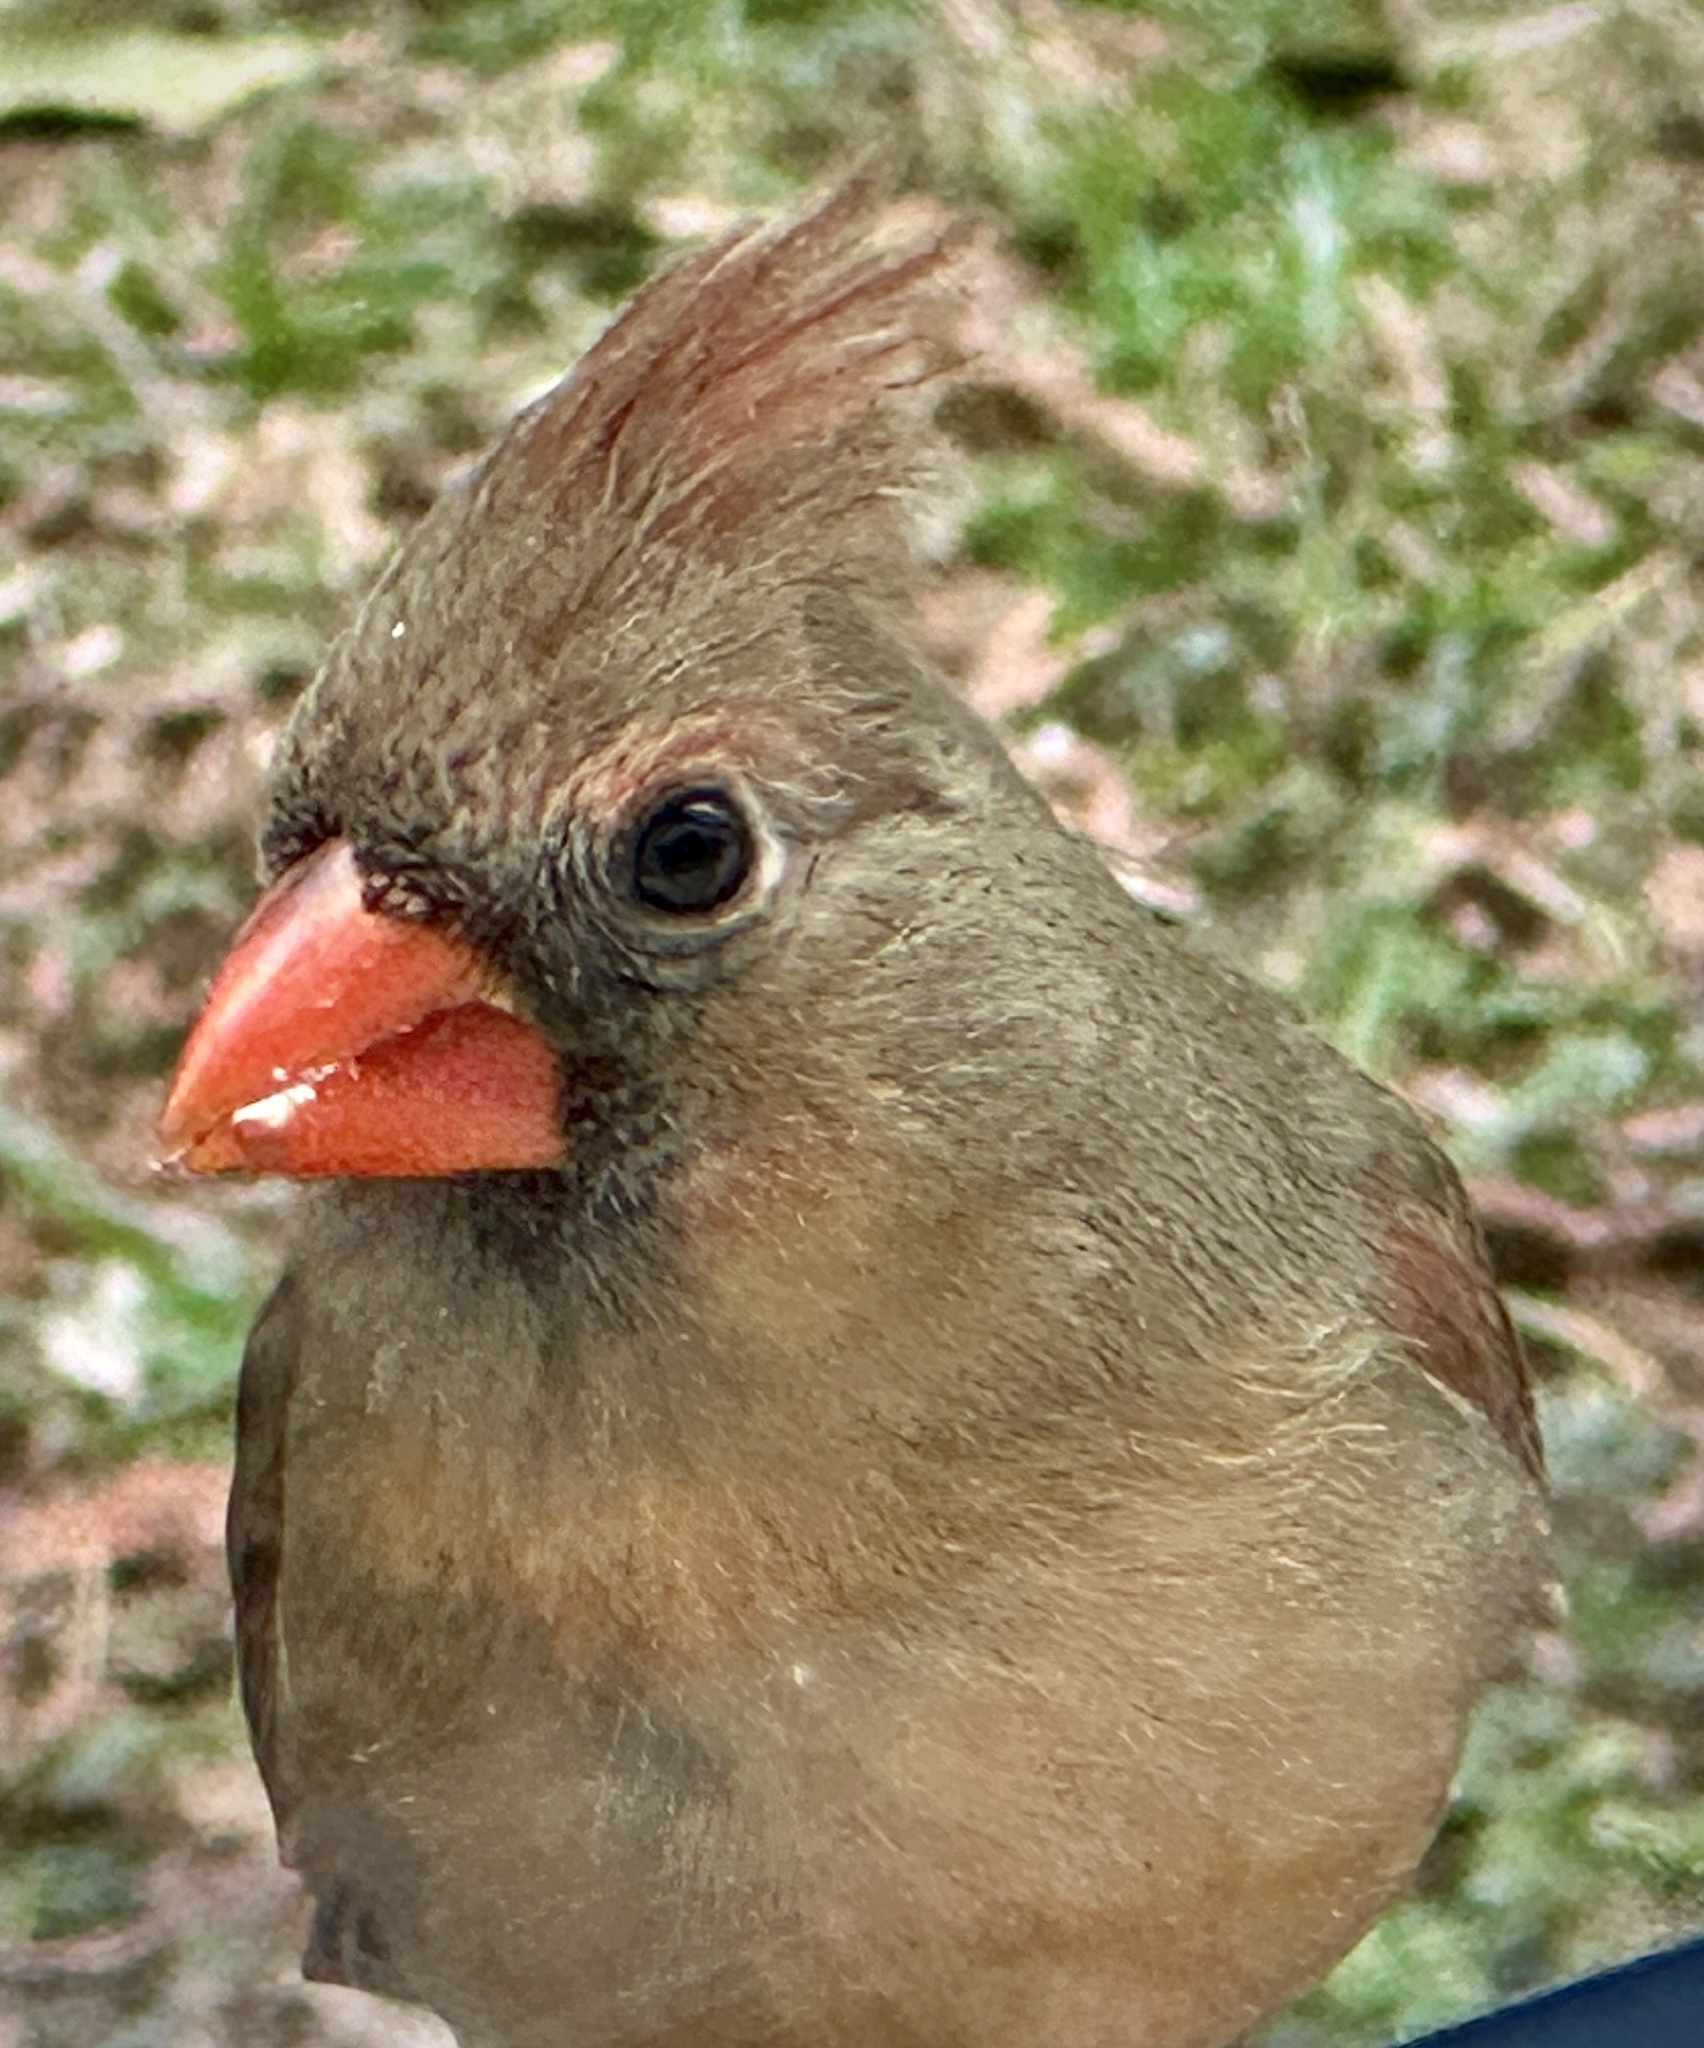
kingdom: Animalia
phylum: Chordata
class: Aves
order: Passeriformes
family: Cardinalidae
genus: Cardinalis
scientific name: Cardinalis cardinalis
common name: Northern cardinal
